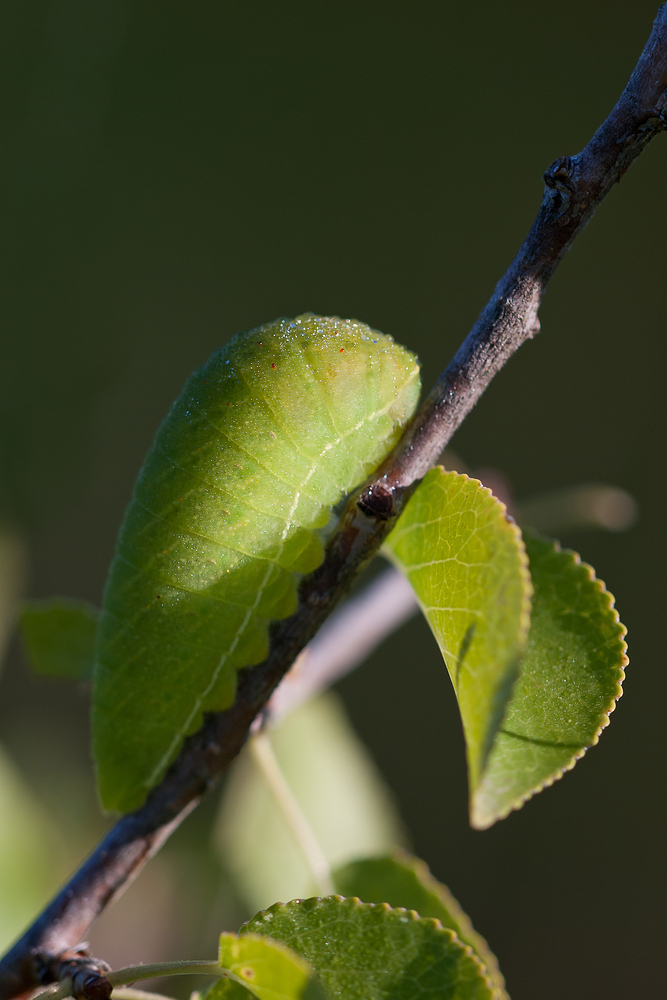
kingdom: Animalia
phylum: Arthropoda
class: Insecta
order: Lepidoptera
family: Papilionidae
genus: Iphiclides
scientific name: Iphiclides podalirius
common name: Scarce swallowtail
